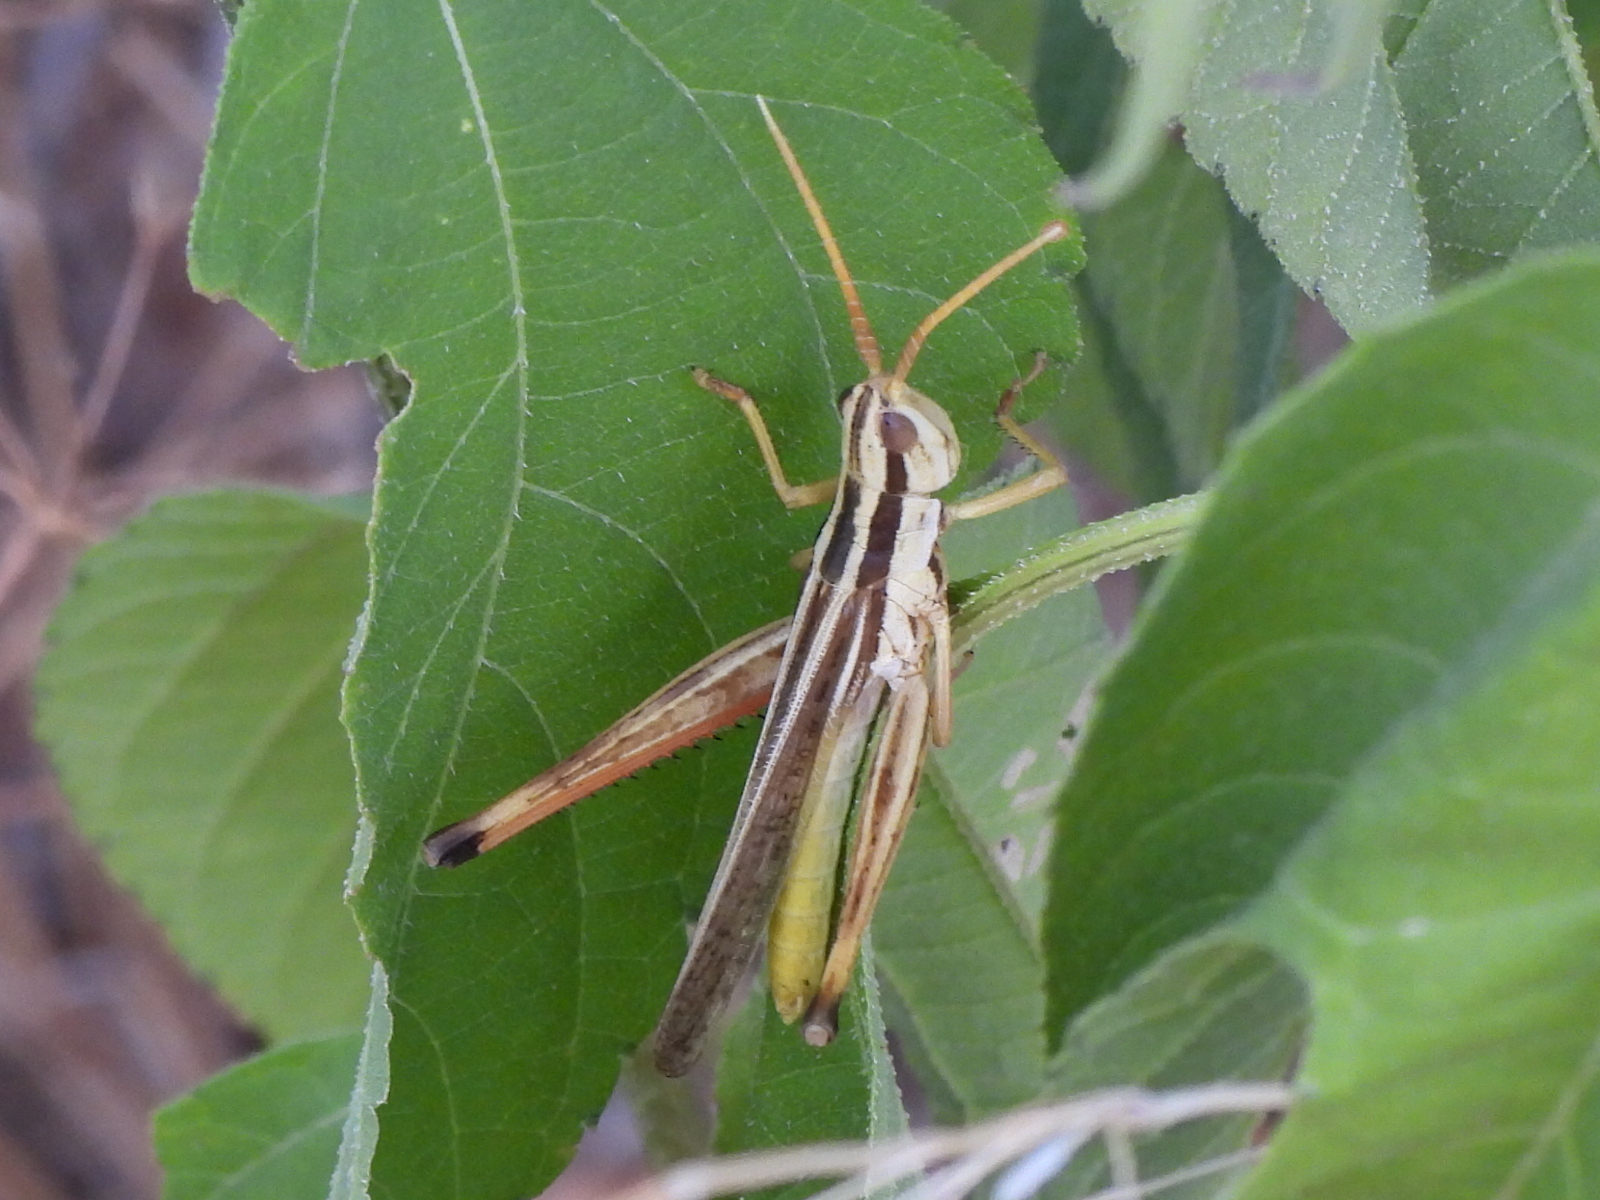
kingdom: Animalia
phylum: Arthropoda
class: Insecta
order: Orthoptera
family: Acrididae
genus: Mermiria
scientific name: Mermiria bivittata
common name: Two-striped mermiria grasshopper
